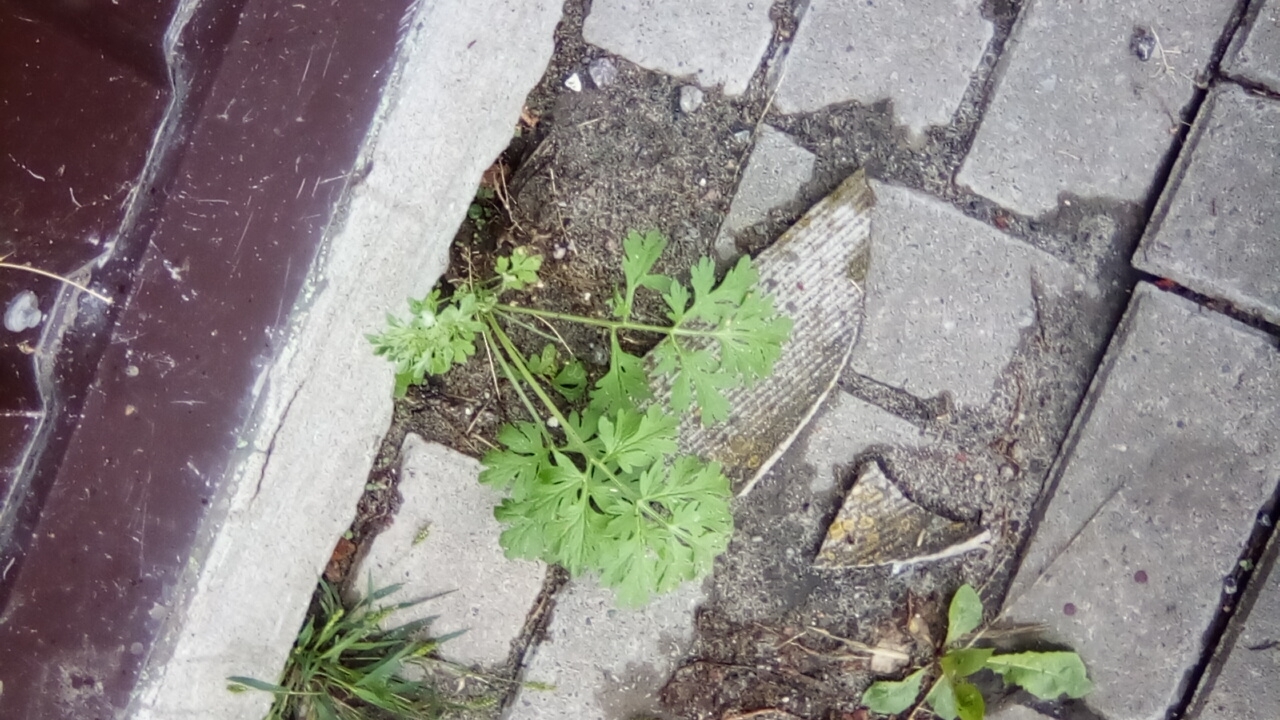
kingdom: Plantae
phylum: Tracheophyta
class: Magnoliopsida
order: Asterales
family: Asteraceae
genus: Artemisia
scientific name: Artemisia absinthium
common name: Wormwood
